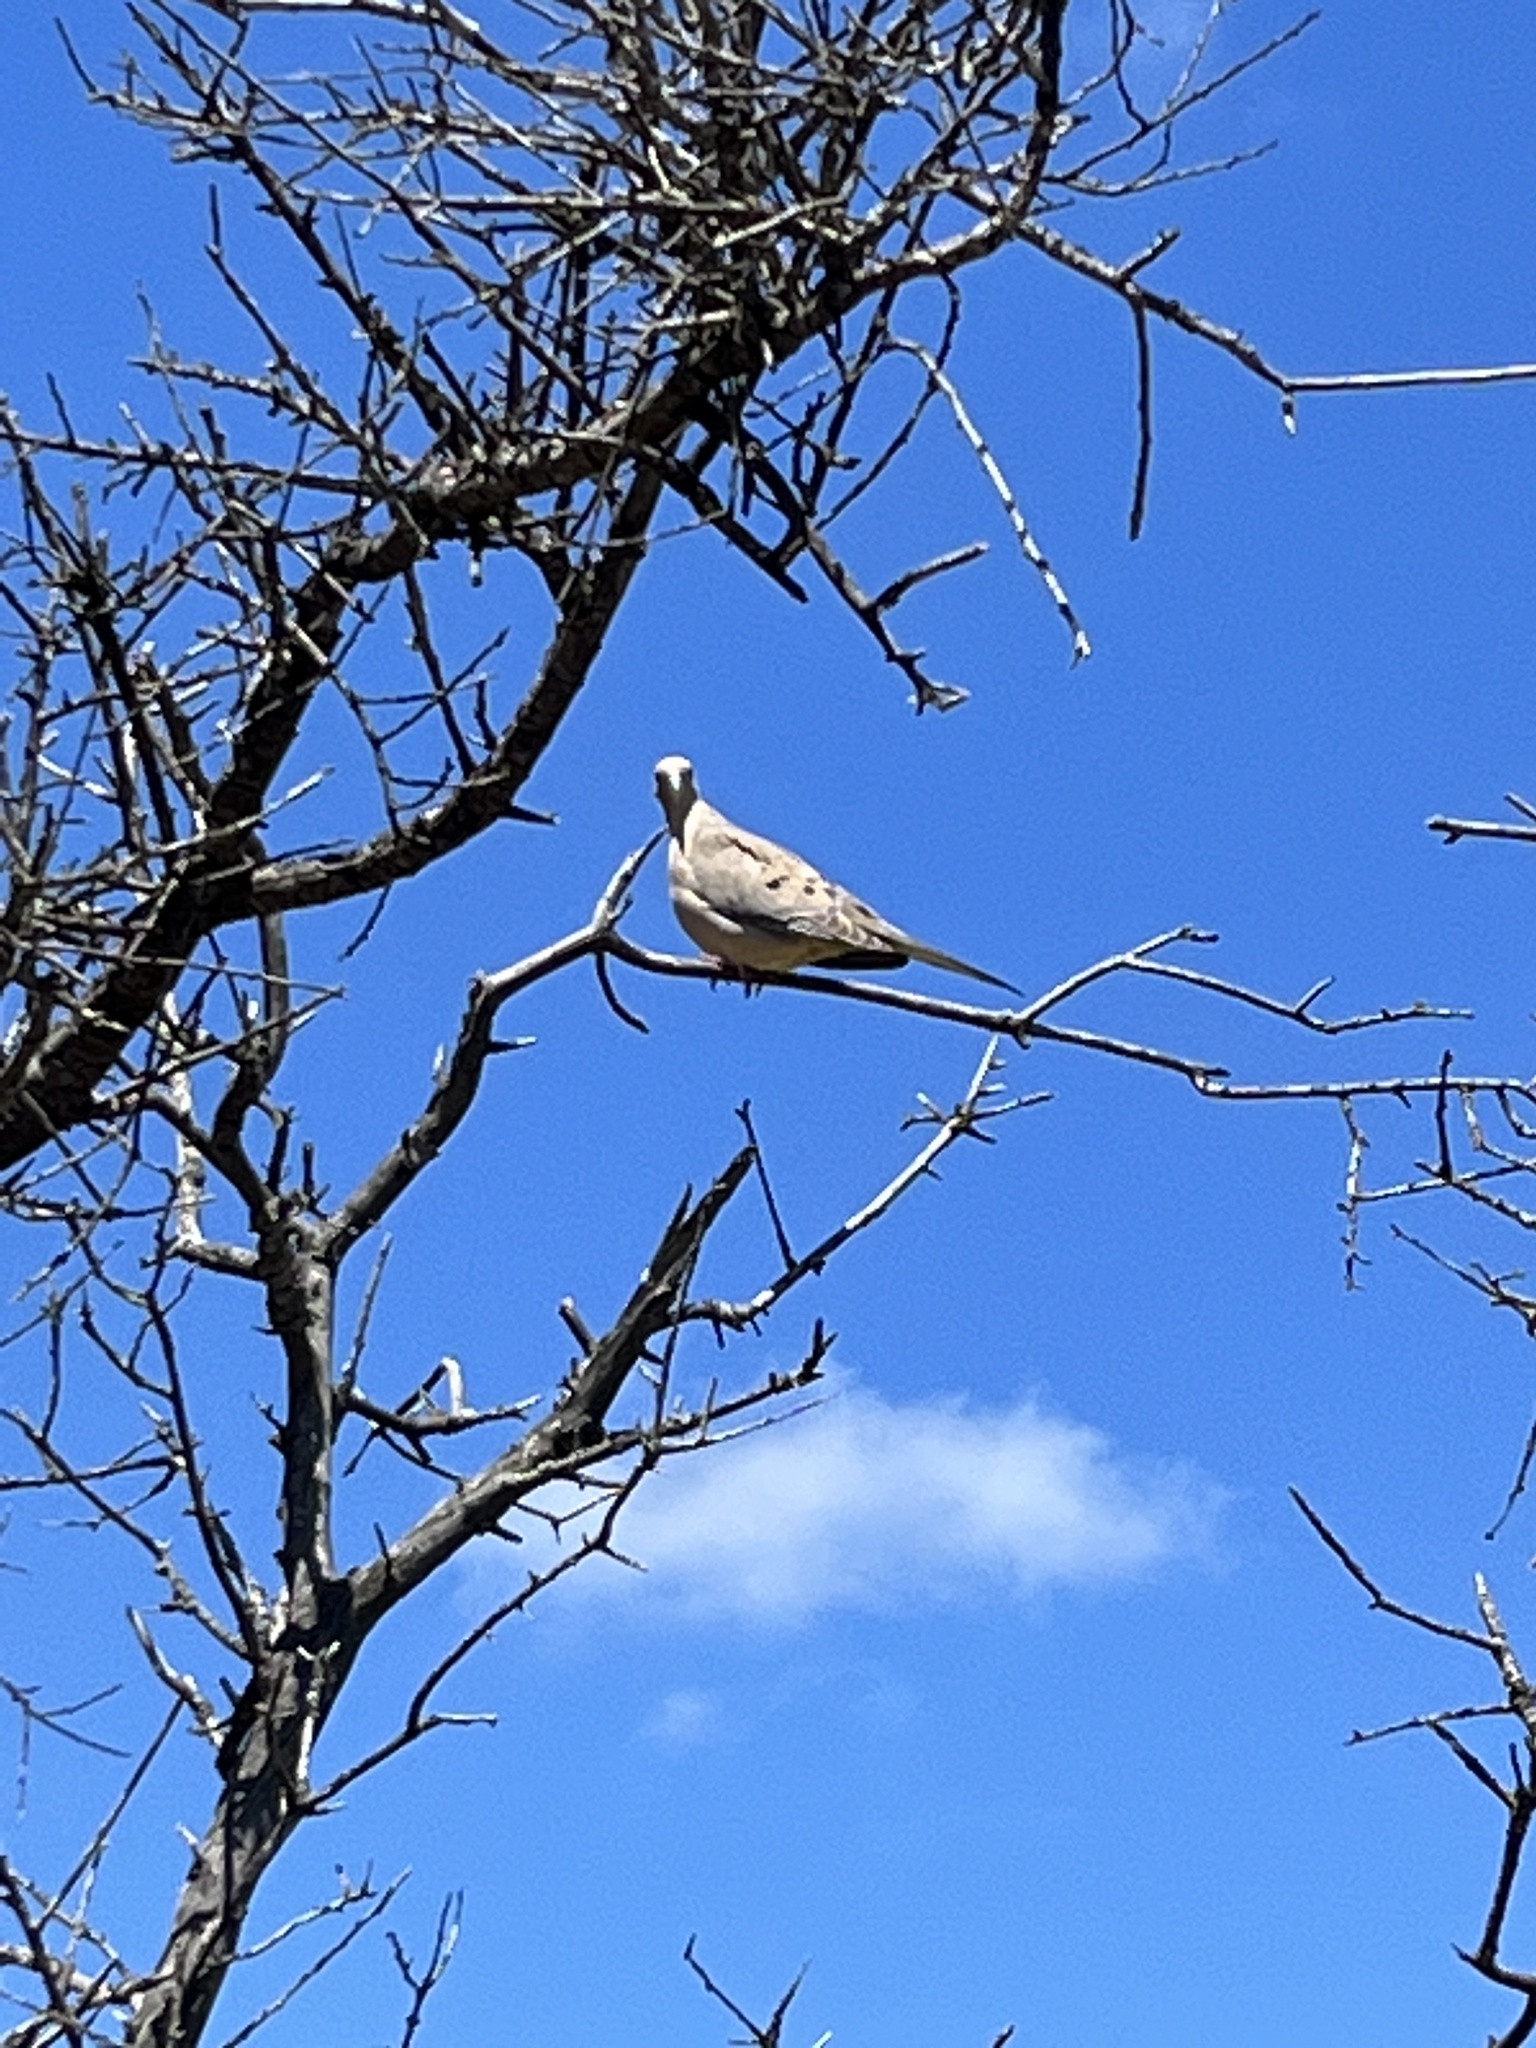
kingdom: Animalia
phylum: Chordata
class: Aves
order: Columbiformes
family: Columbidae
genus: Zenaida
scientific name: Zenaida macroura
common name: Mourning dove
